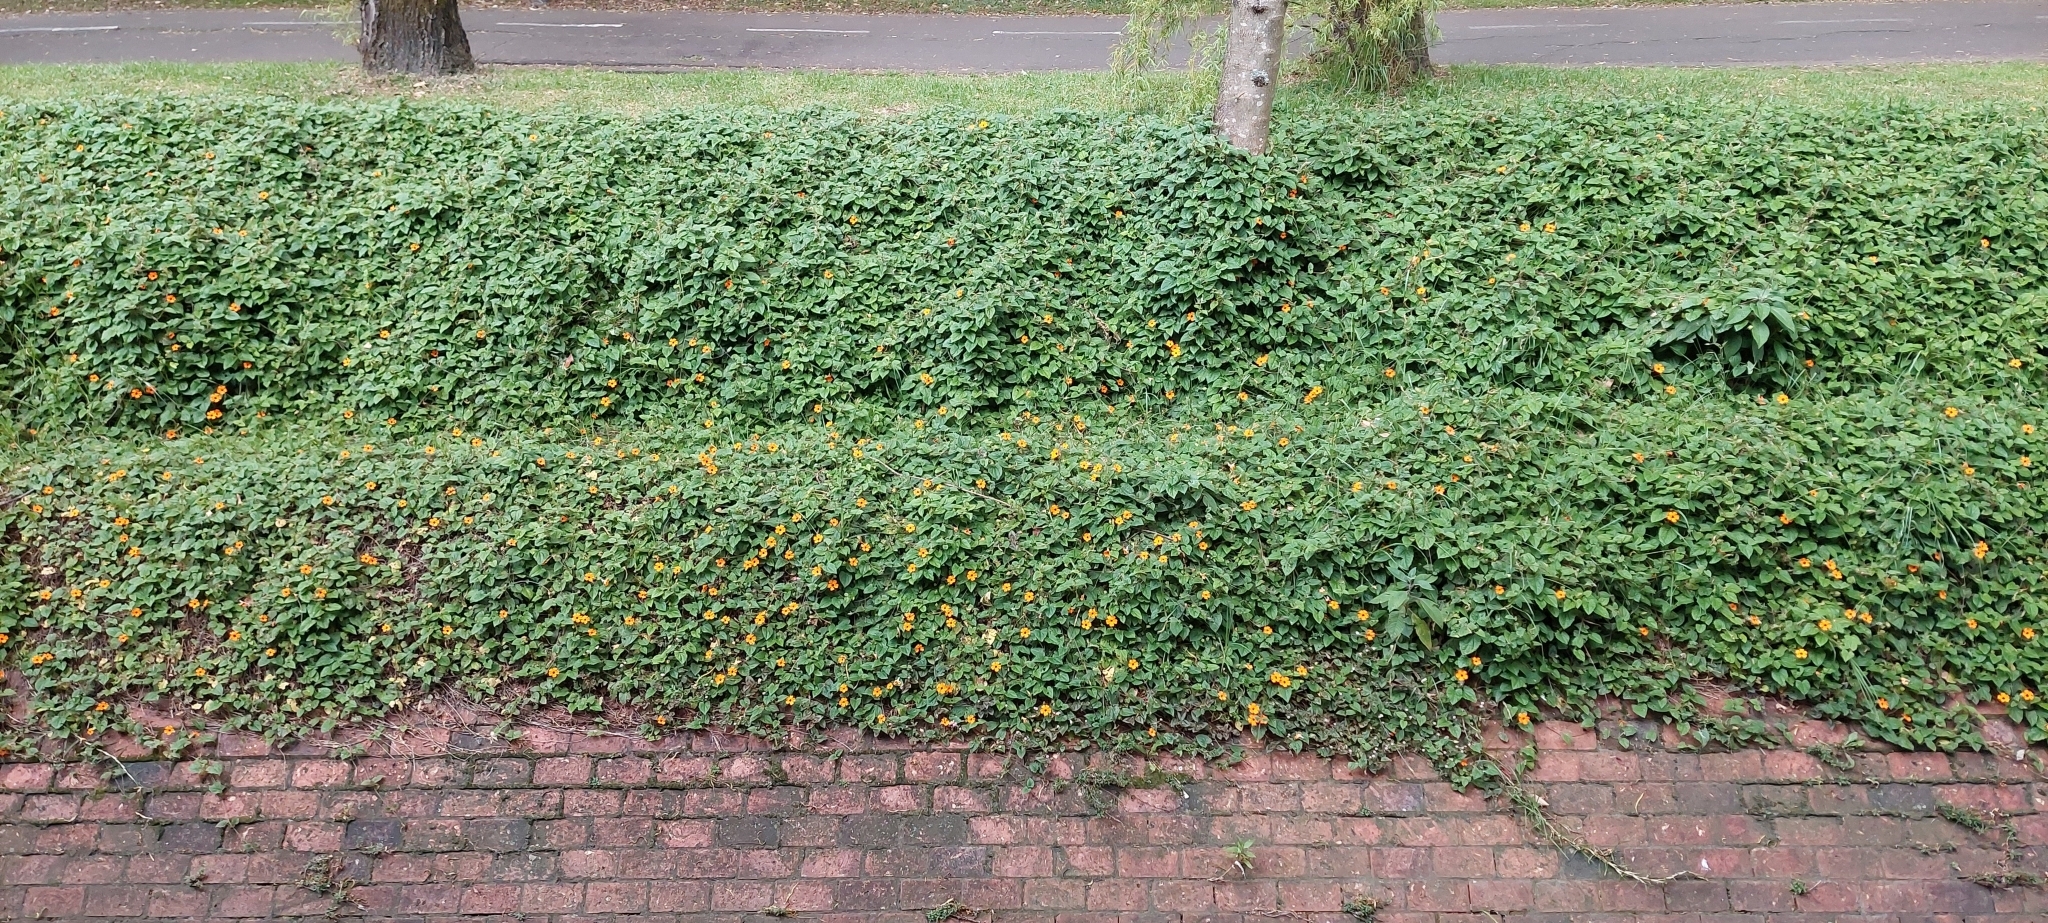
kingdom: Plantae
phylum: Tracheophyta
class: Magnoliopsida
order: Lamiales
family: Acanthaceae
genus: Thunbergia
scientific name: Thunbergia alata
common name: Blackeyed susan vine
